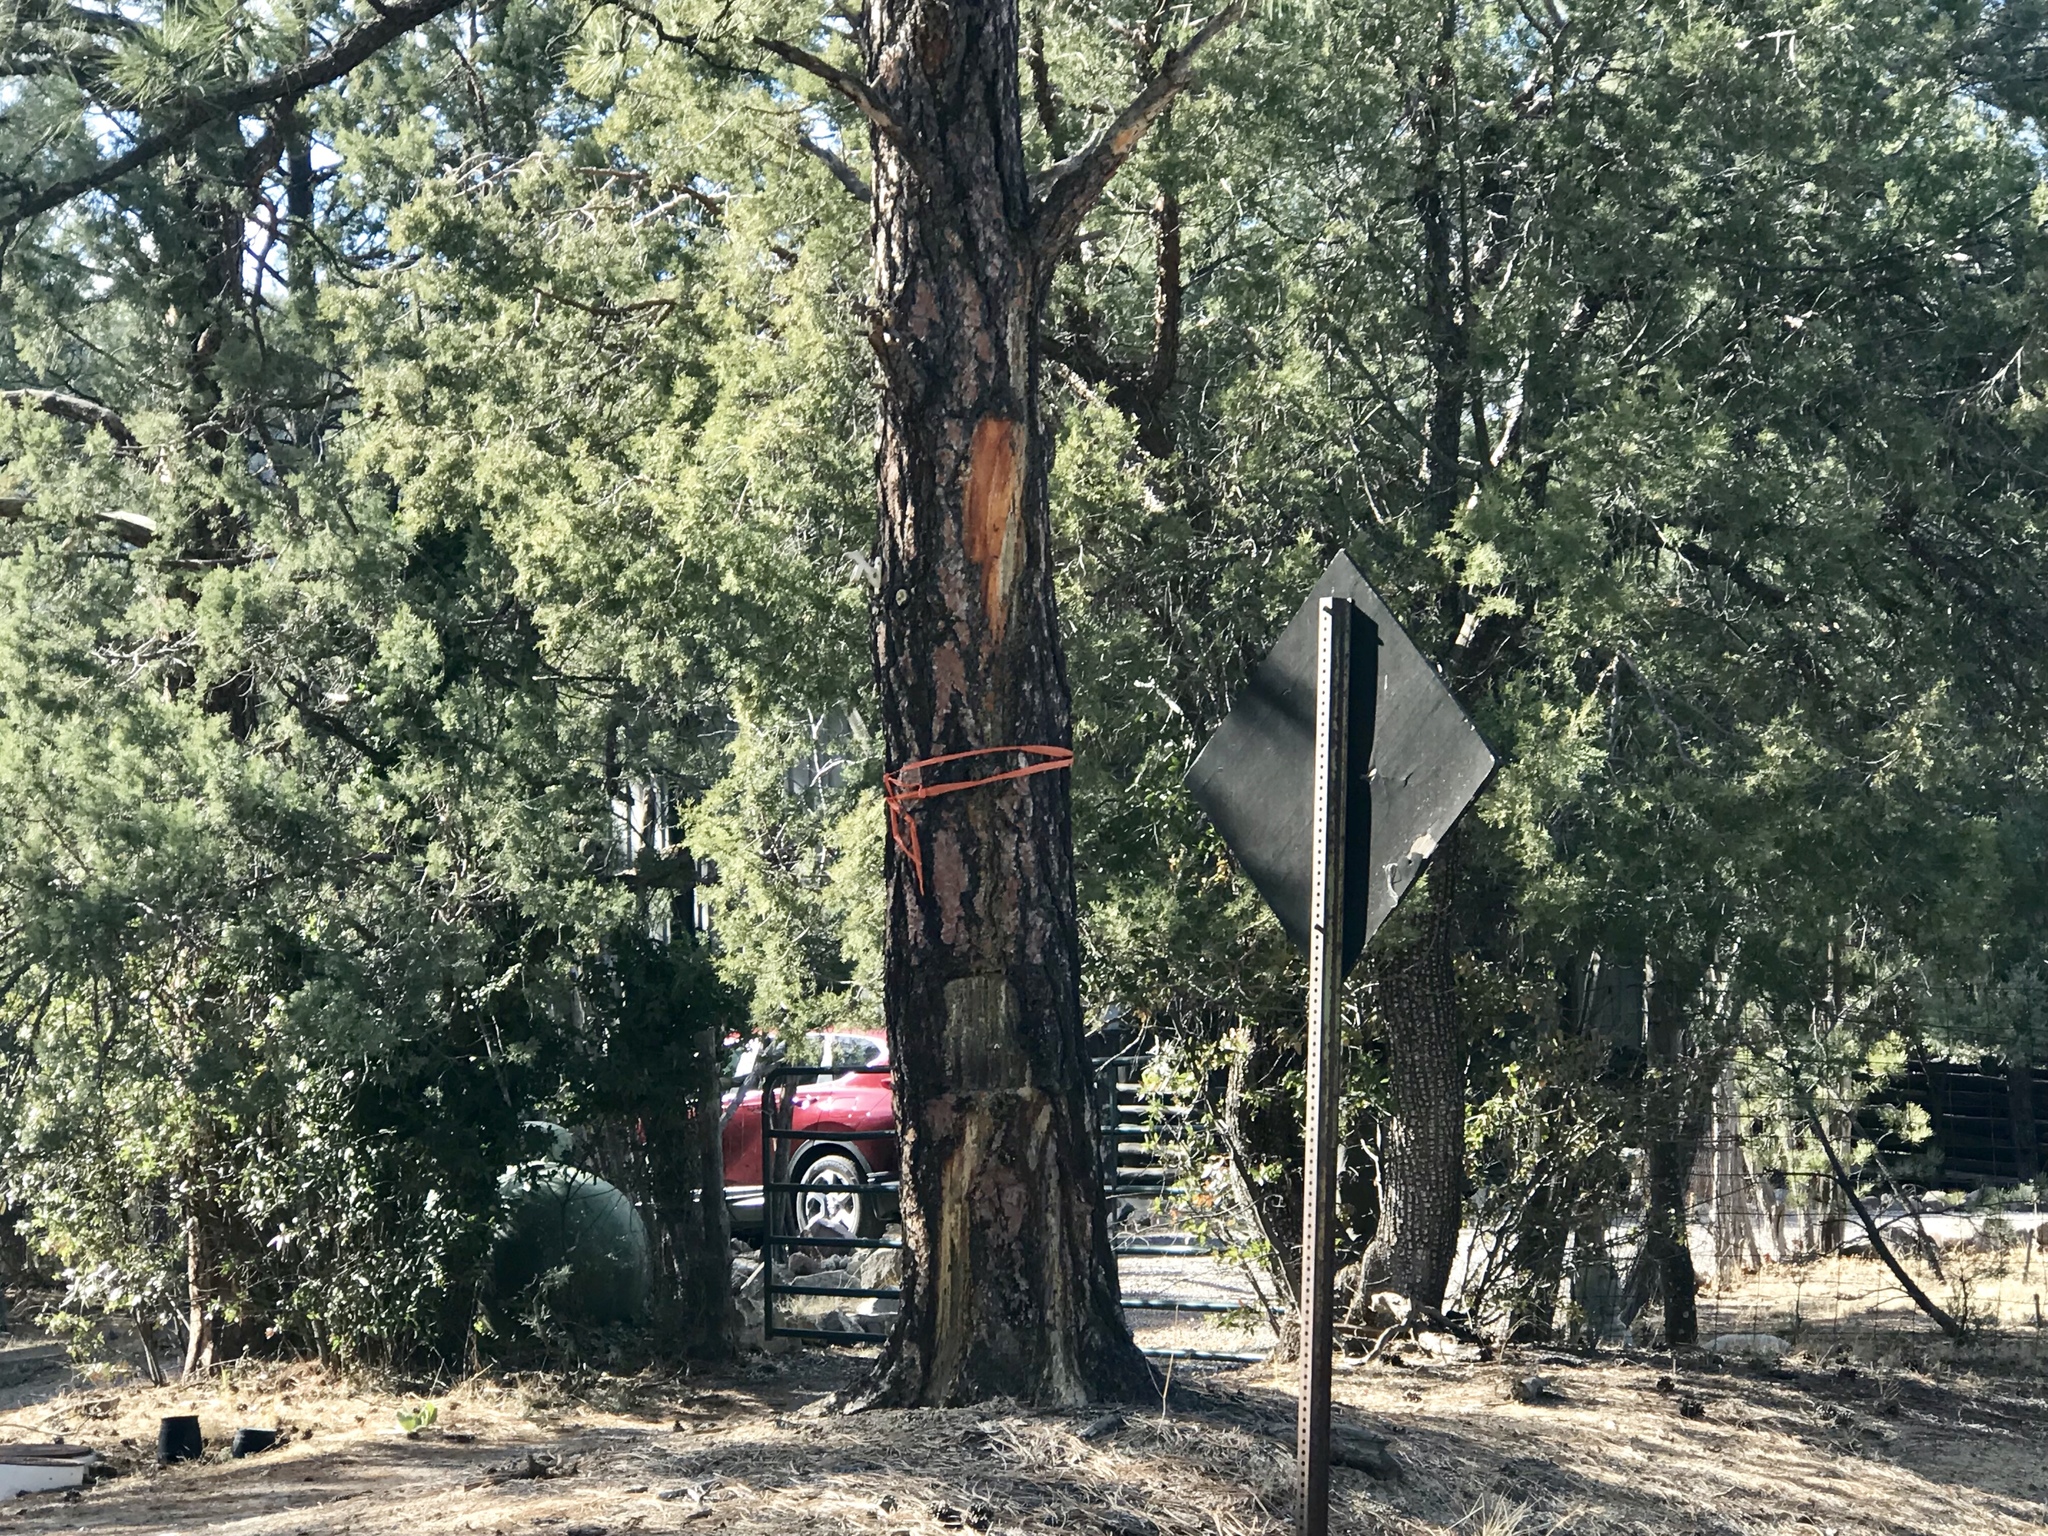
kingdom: Plantae
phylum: Tracheophyta
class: Pinopsida
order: Pinales
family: Pinaceae
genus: Pinus
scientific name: Pinus ponderosa
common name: Western yellow-pine
